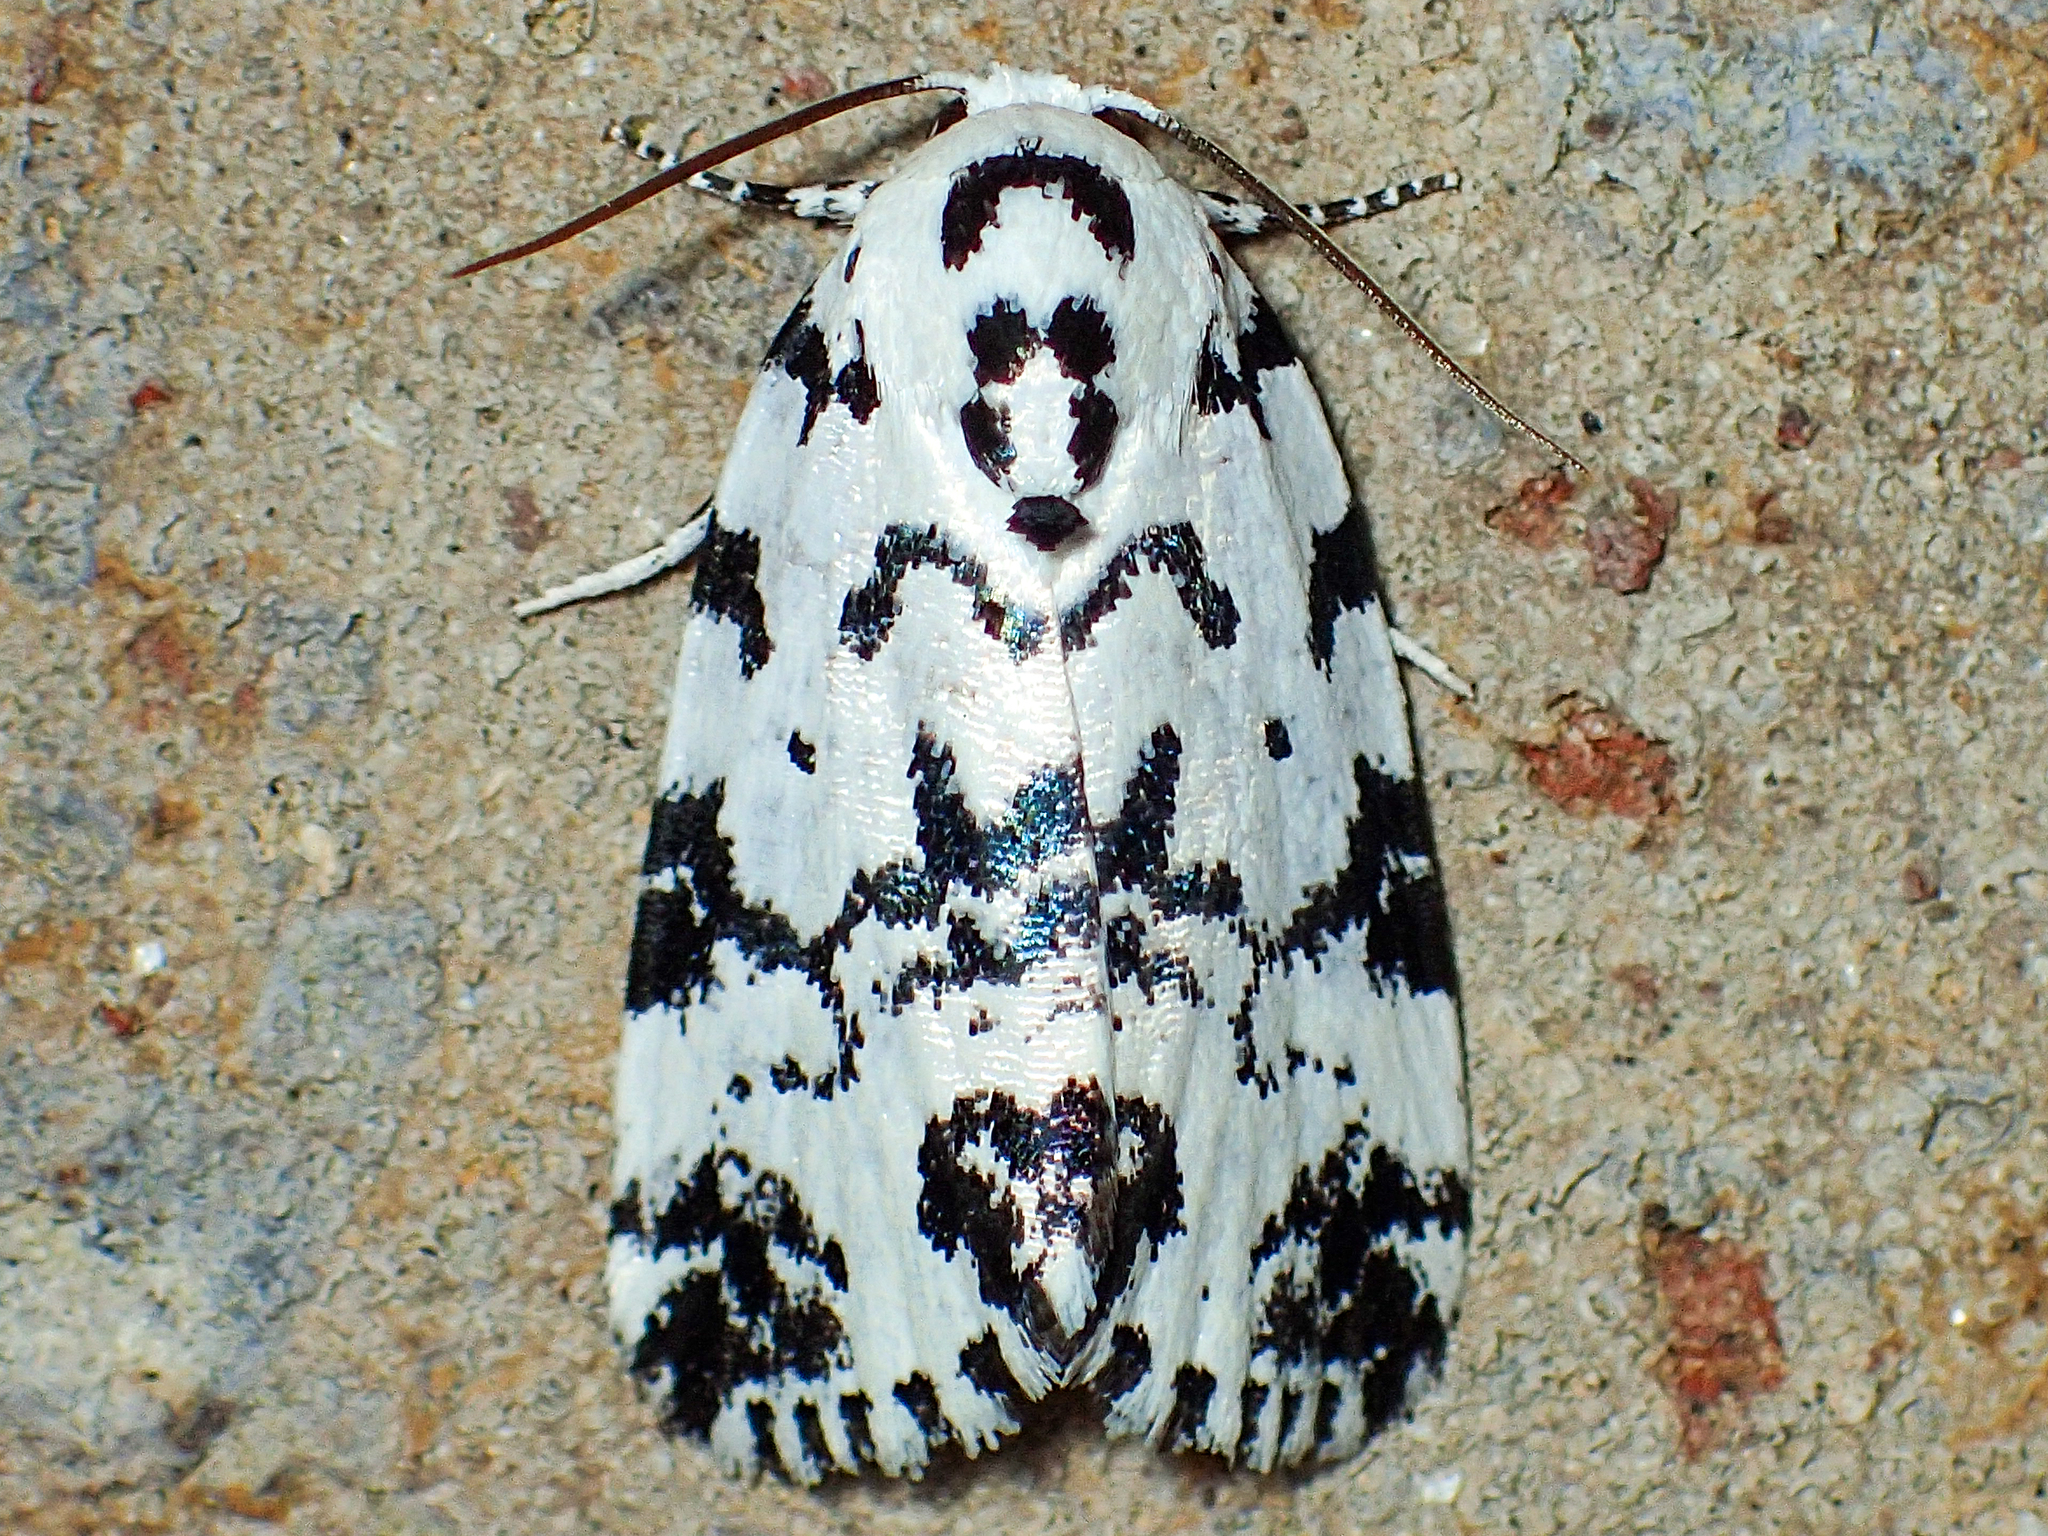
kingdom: Animalia
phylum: Arthropoda
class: Insecta
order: Lepidoptera
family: Noctuidae
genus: Polygrammate
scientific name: Polygrammate hebraeicum
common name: Hebrew moth
